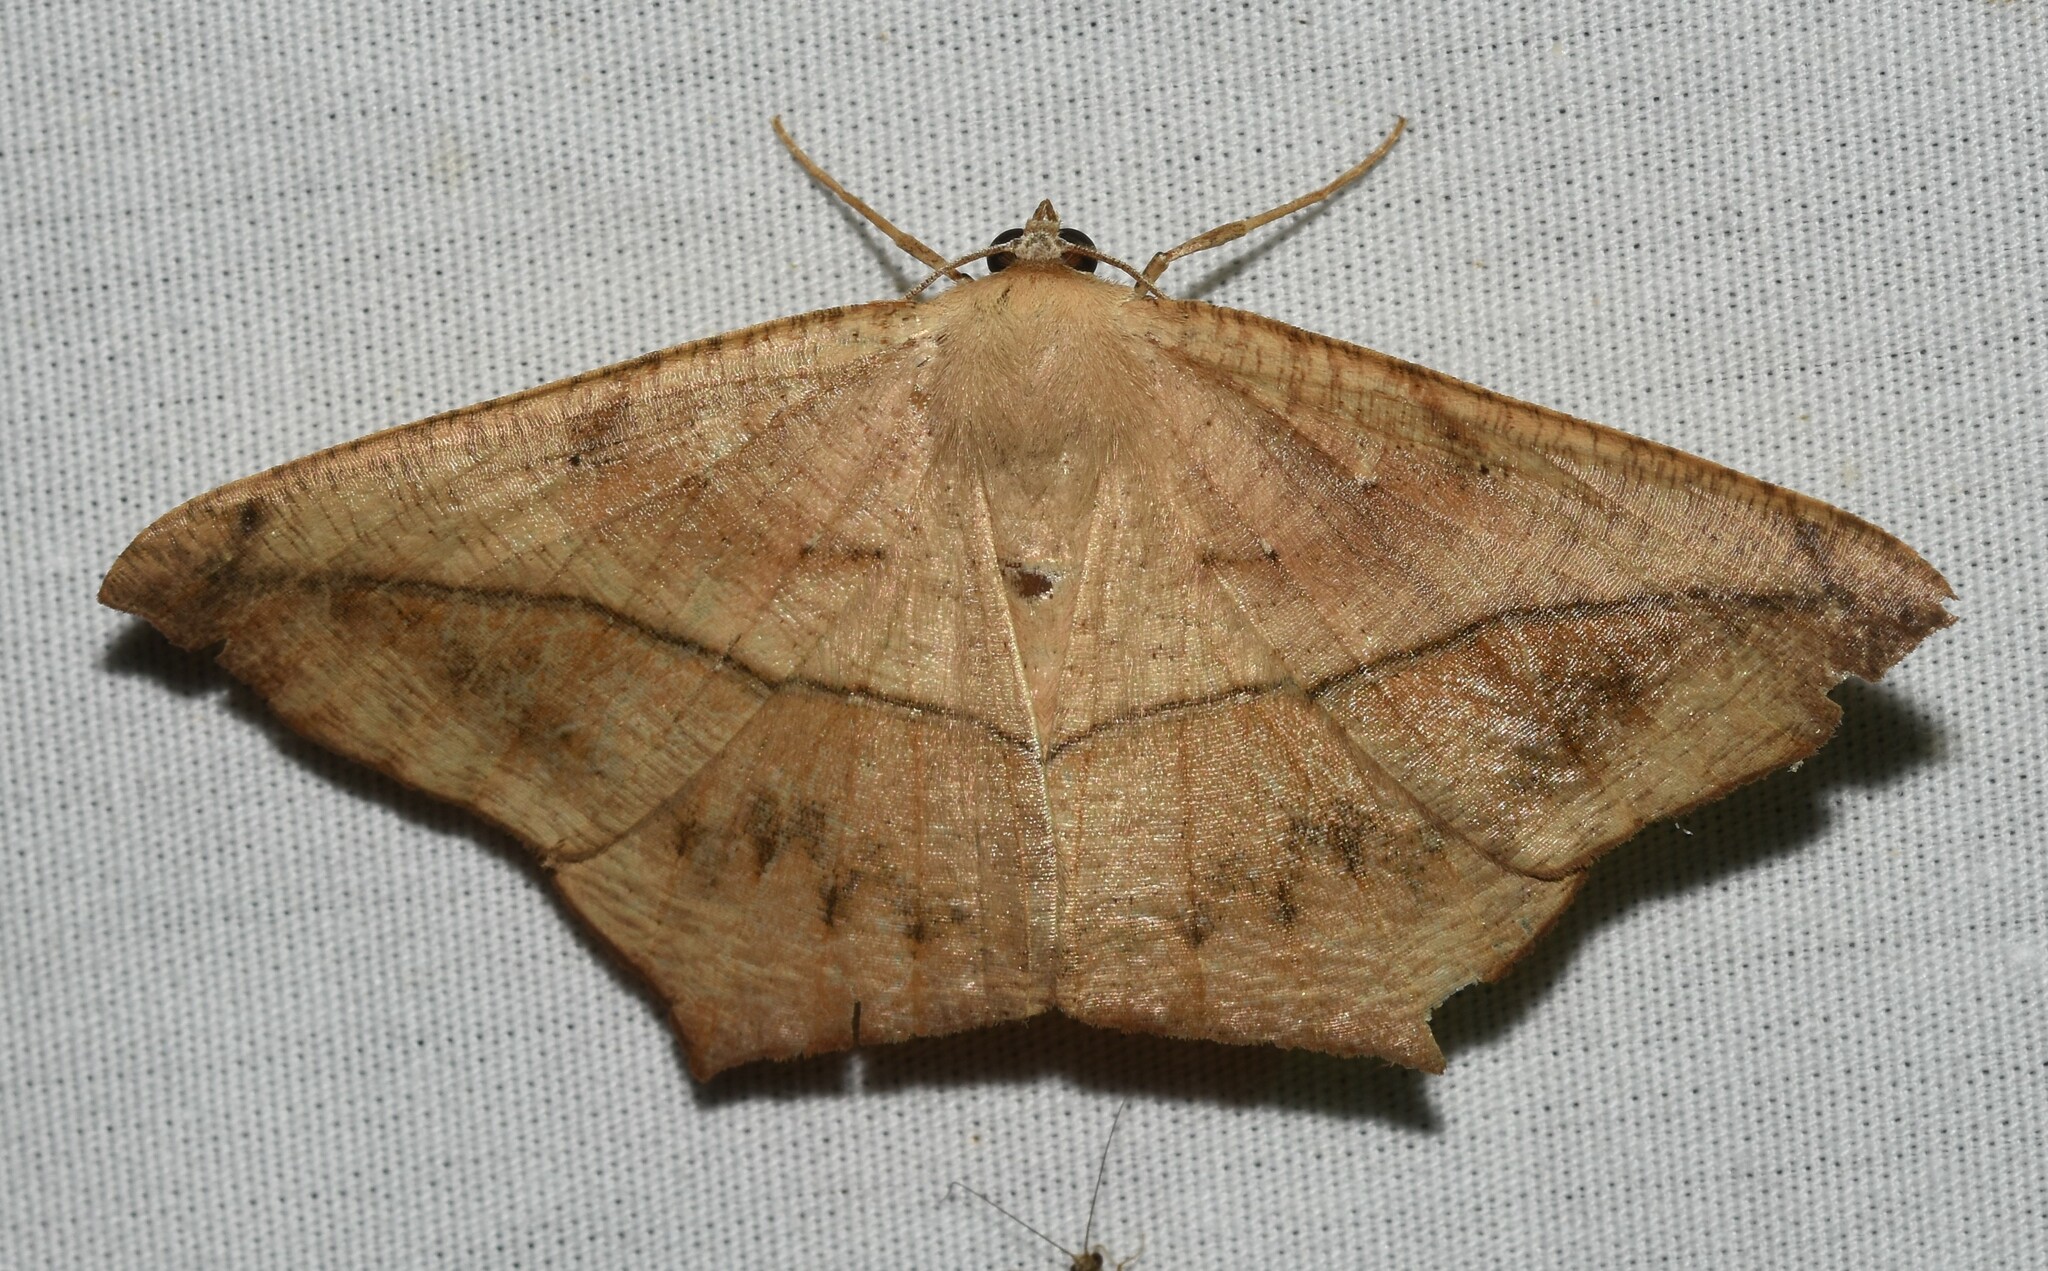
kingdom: Animalia
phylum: Arthropoda
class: Insecta
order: Lepidoptera
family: Geometridae
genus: Prochoerodes
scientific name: Prochoerodes lineola
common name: Large maple spanworm
